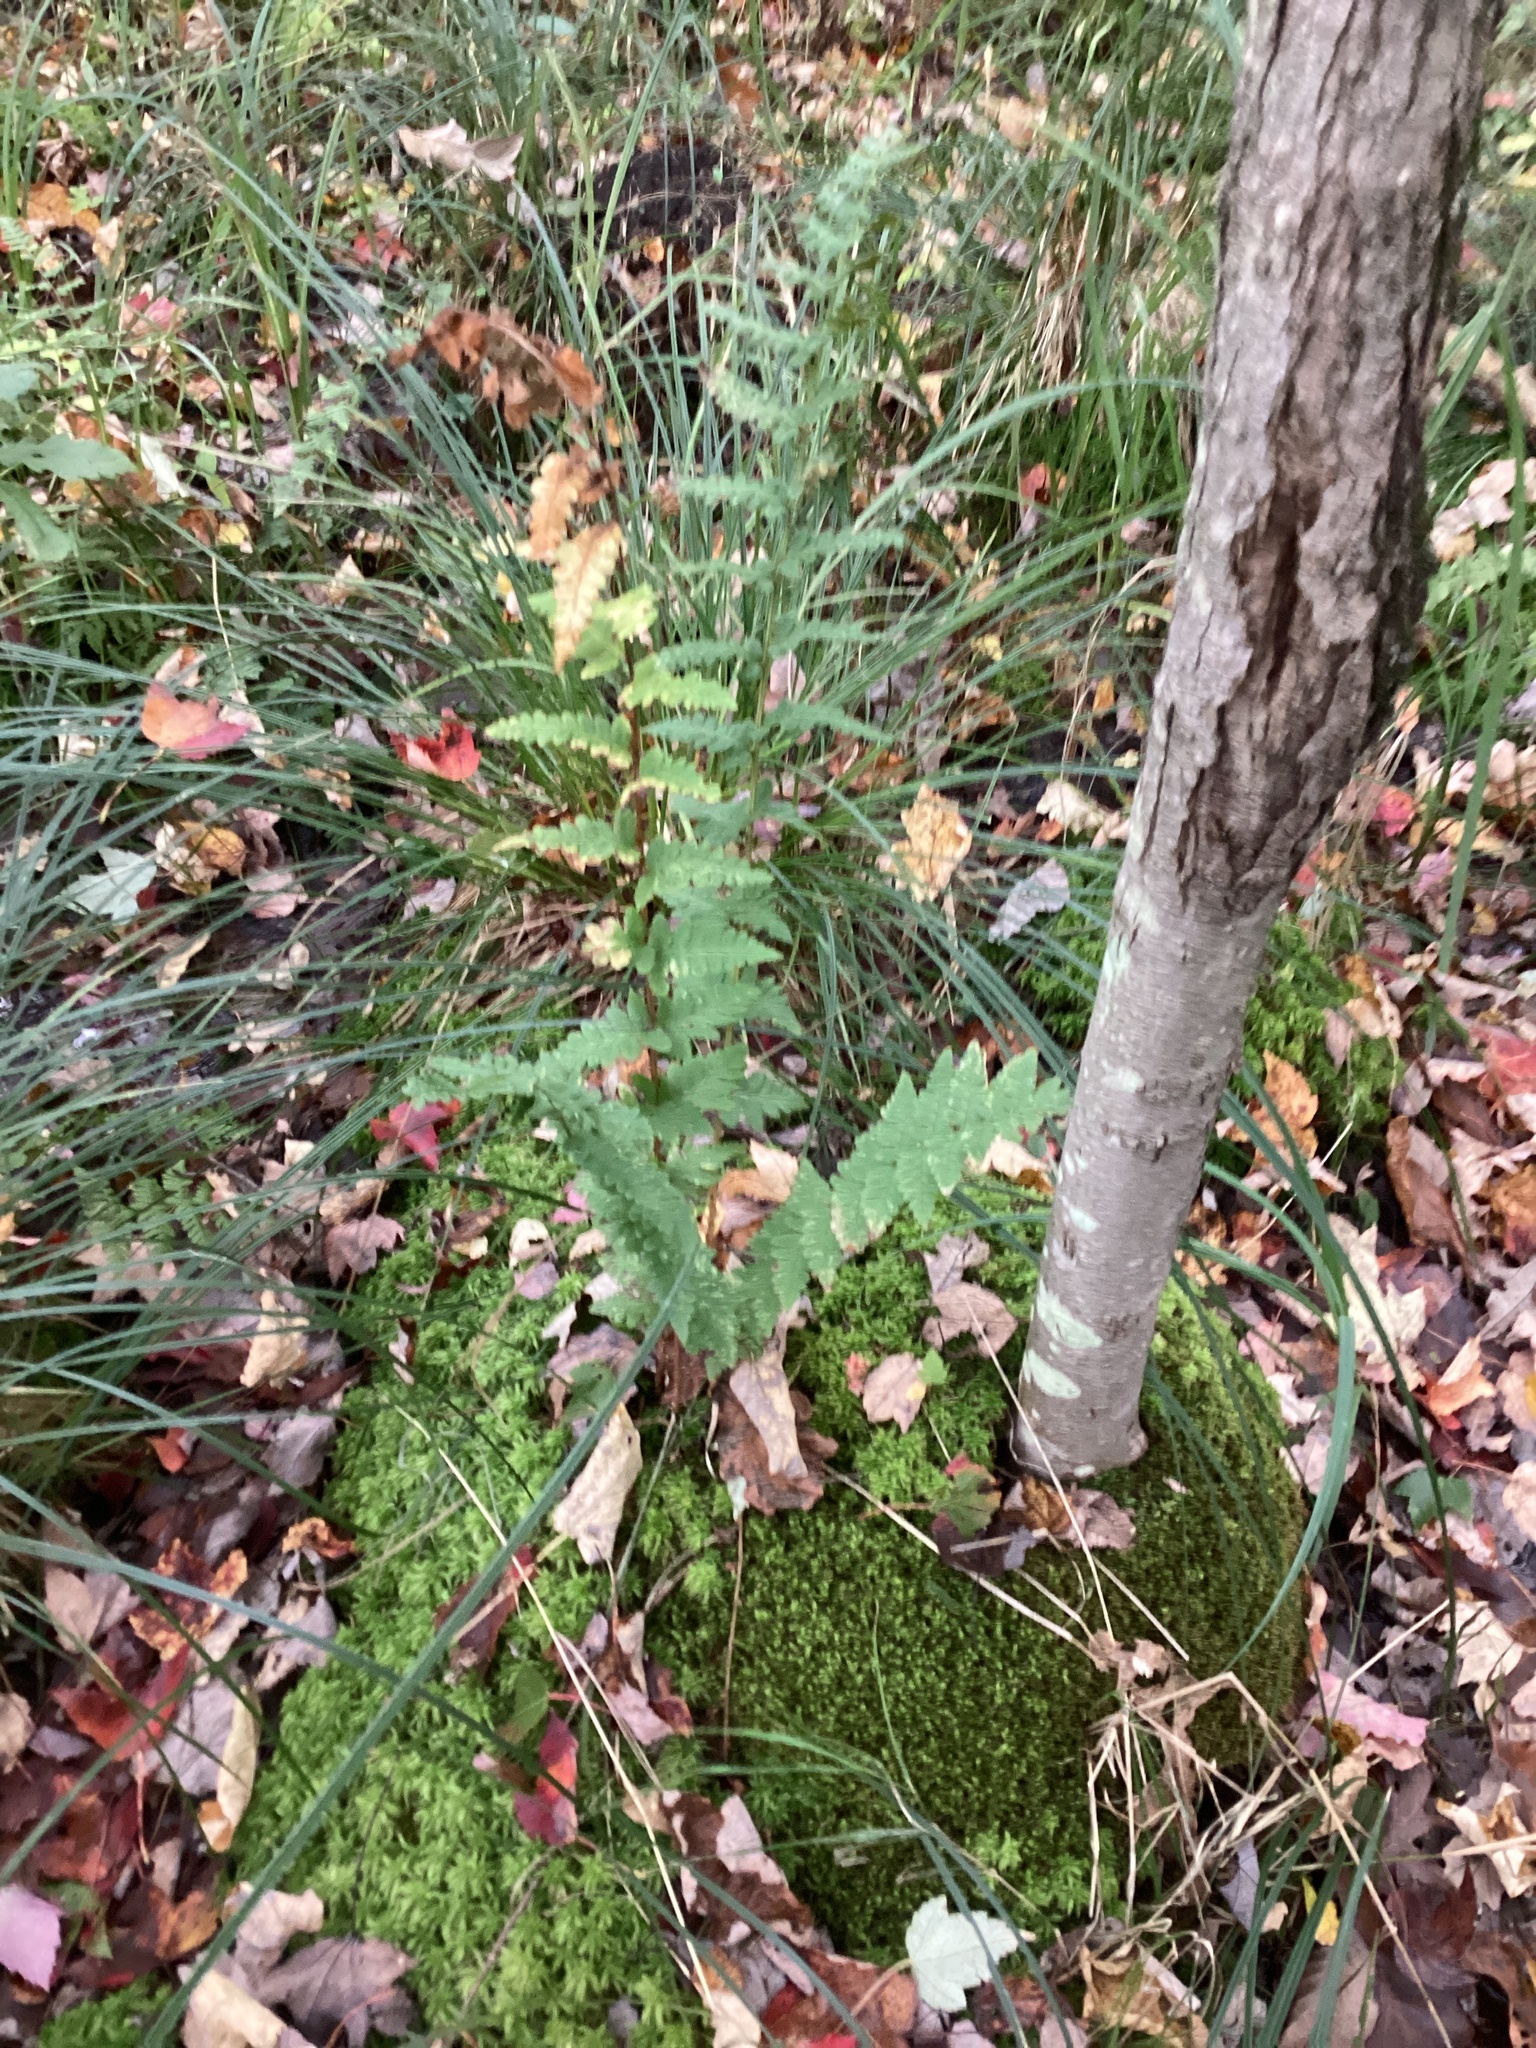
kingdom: Plantae
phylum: Tracheophyta
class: Polypodiopsida
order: Polypodiales
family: Dryopteridaceae
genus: Dryopteris
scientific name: Dryopteris cristata
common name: Crested wood fern
